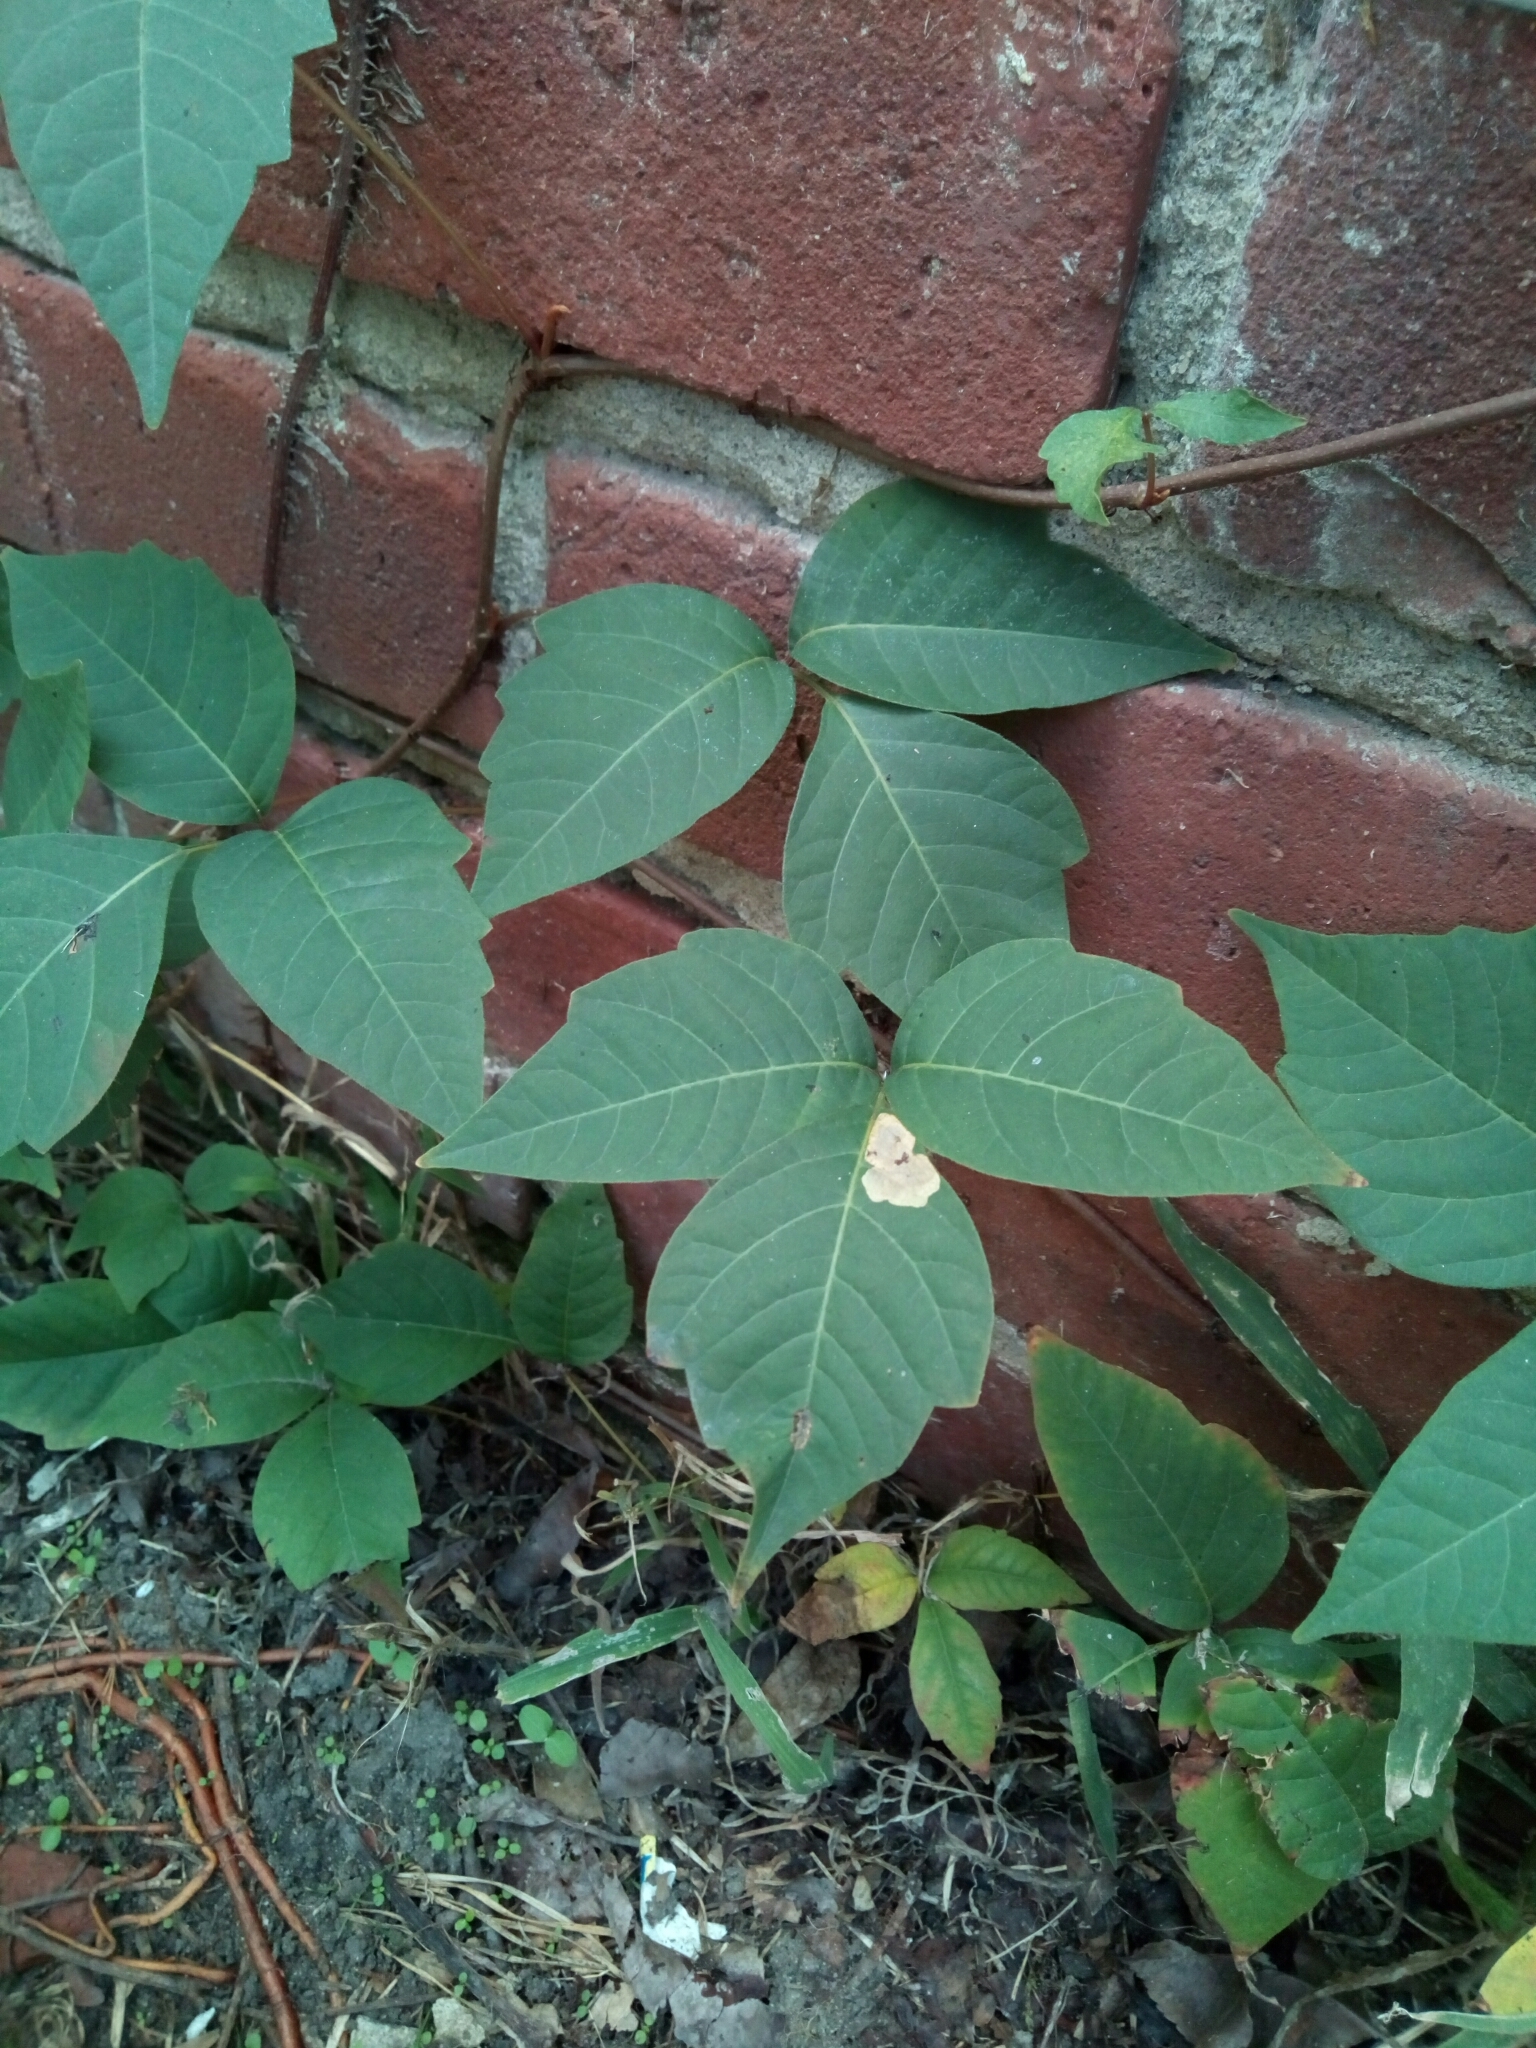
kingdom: Plantae
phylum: Tracheophyta
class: Magnoliopsida
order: Sapindales
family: Anacardiaceae
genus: Toxicodendron
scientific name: Toxicodendron radicans
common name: Poison ivy
